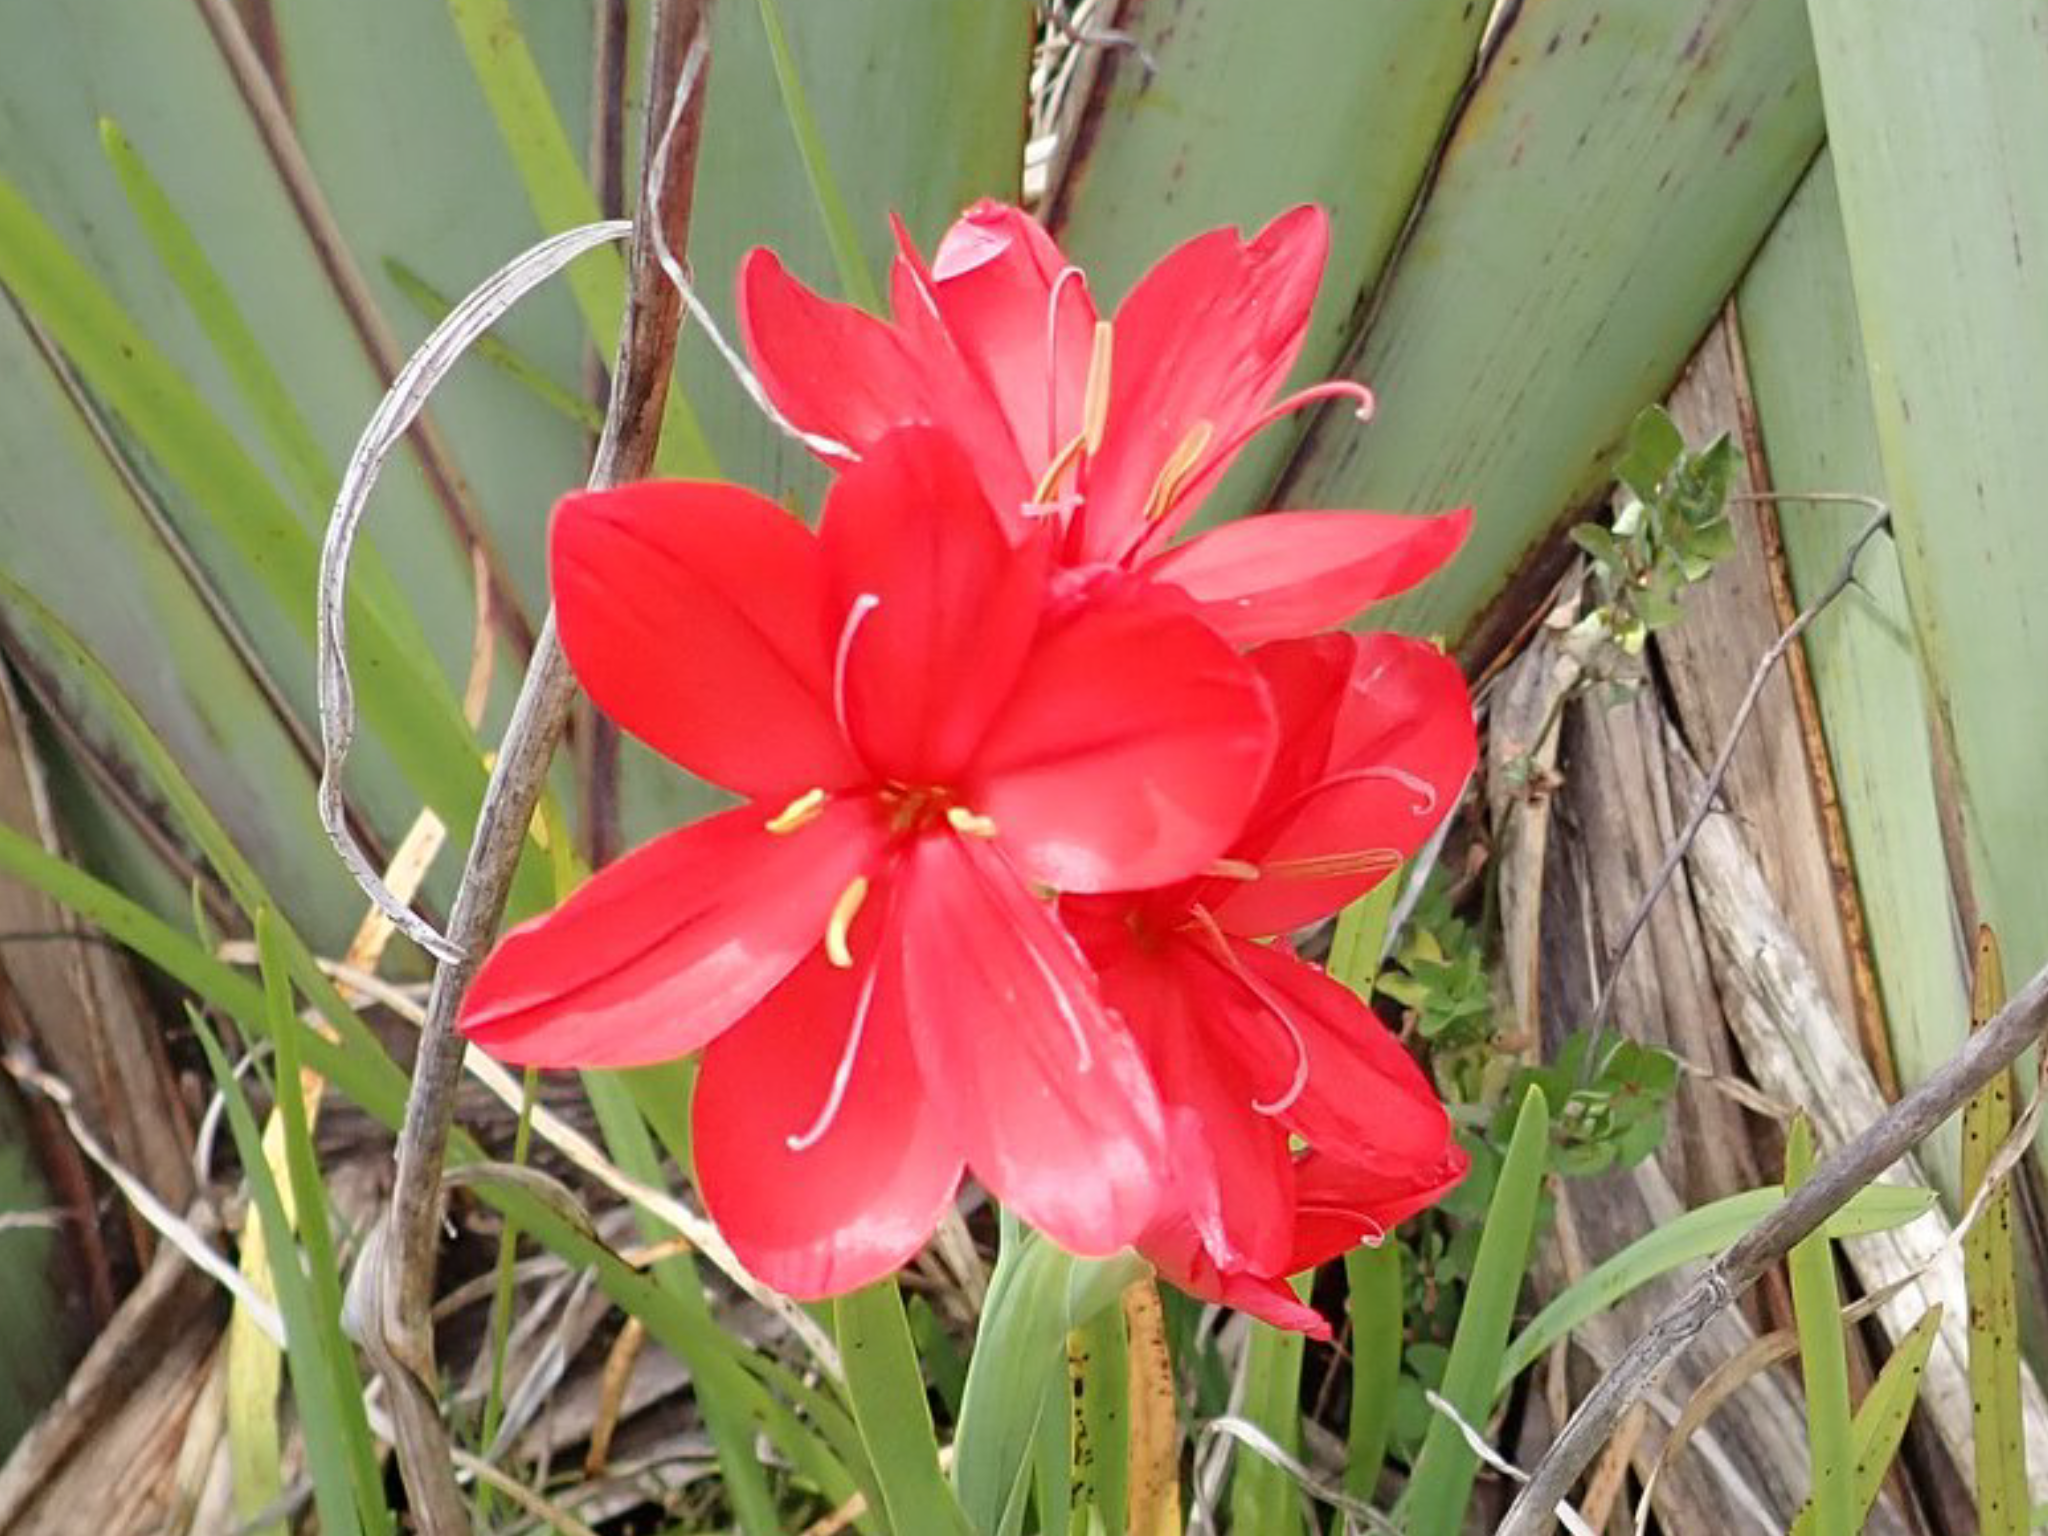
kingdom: Plantae
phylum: Tracheophyta
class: Liliopsida
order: Asparagales
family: Iridaceae
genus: Hesperantha
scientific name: Hesperantha coccinea
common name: River-lily
